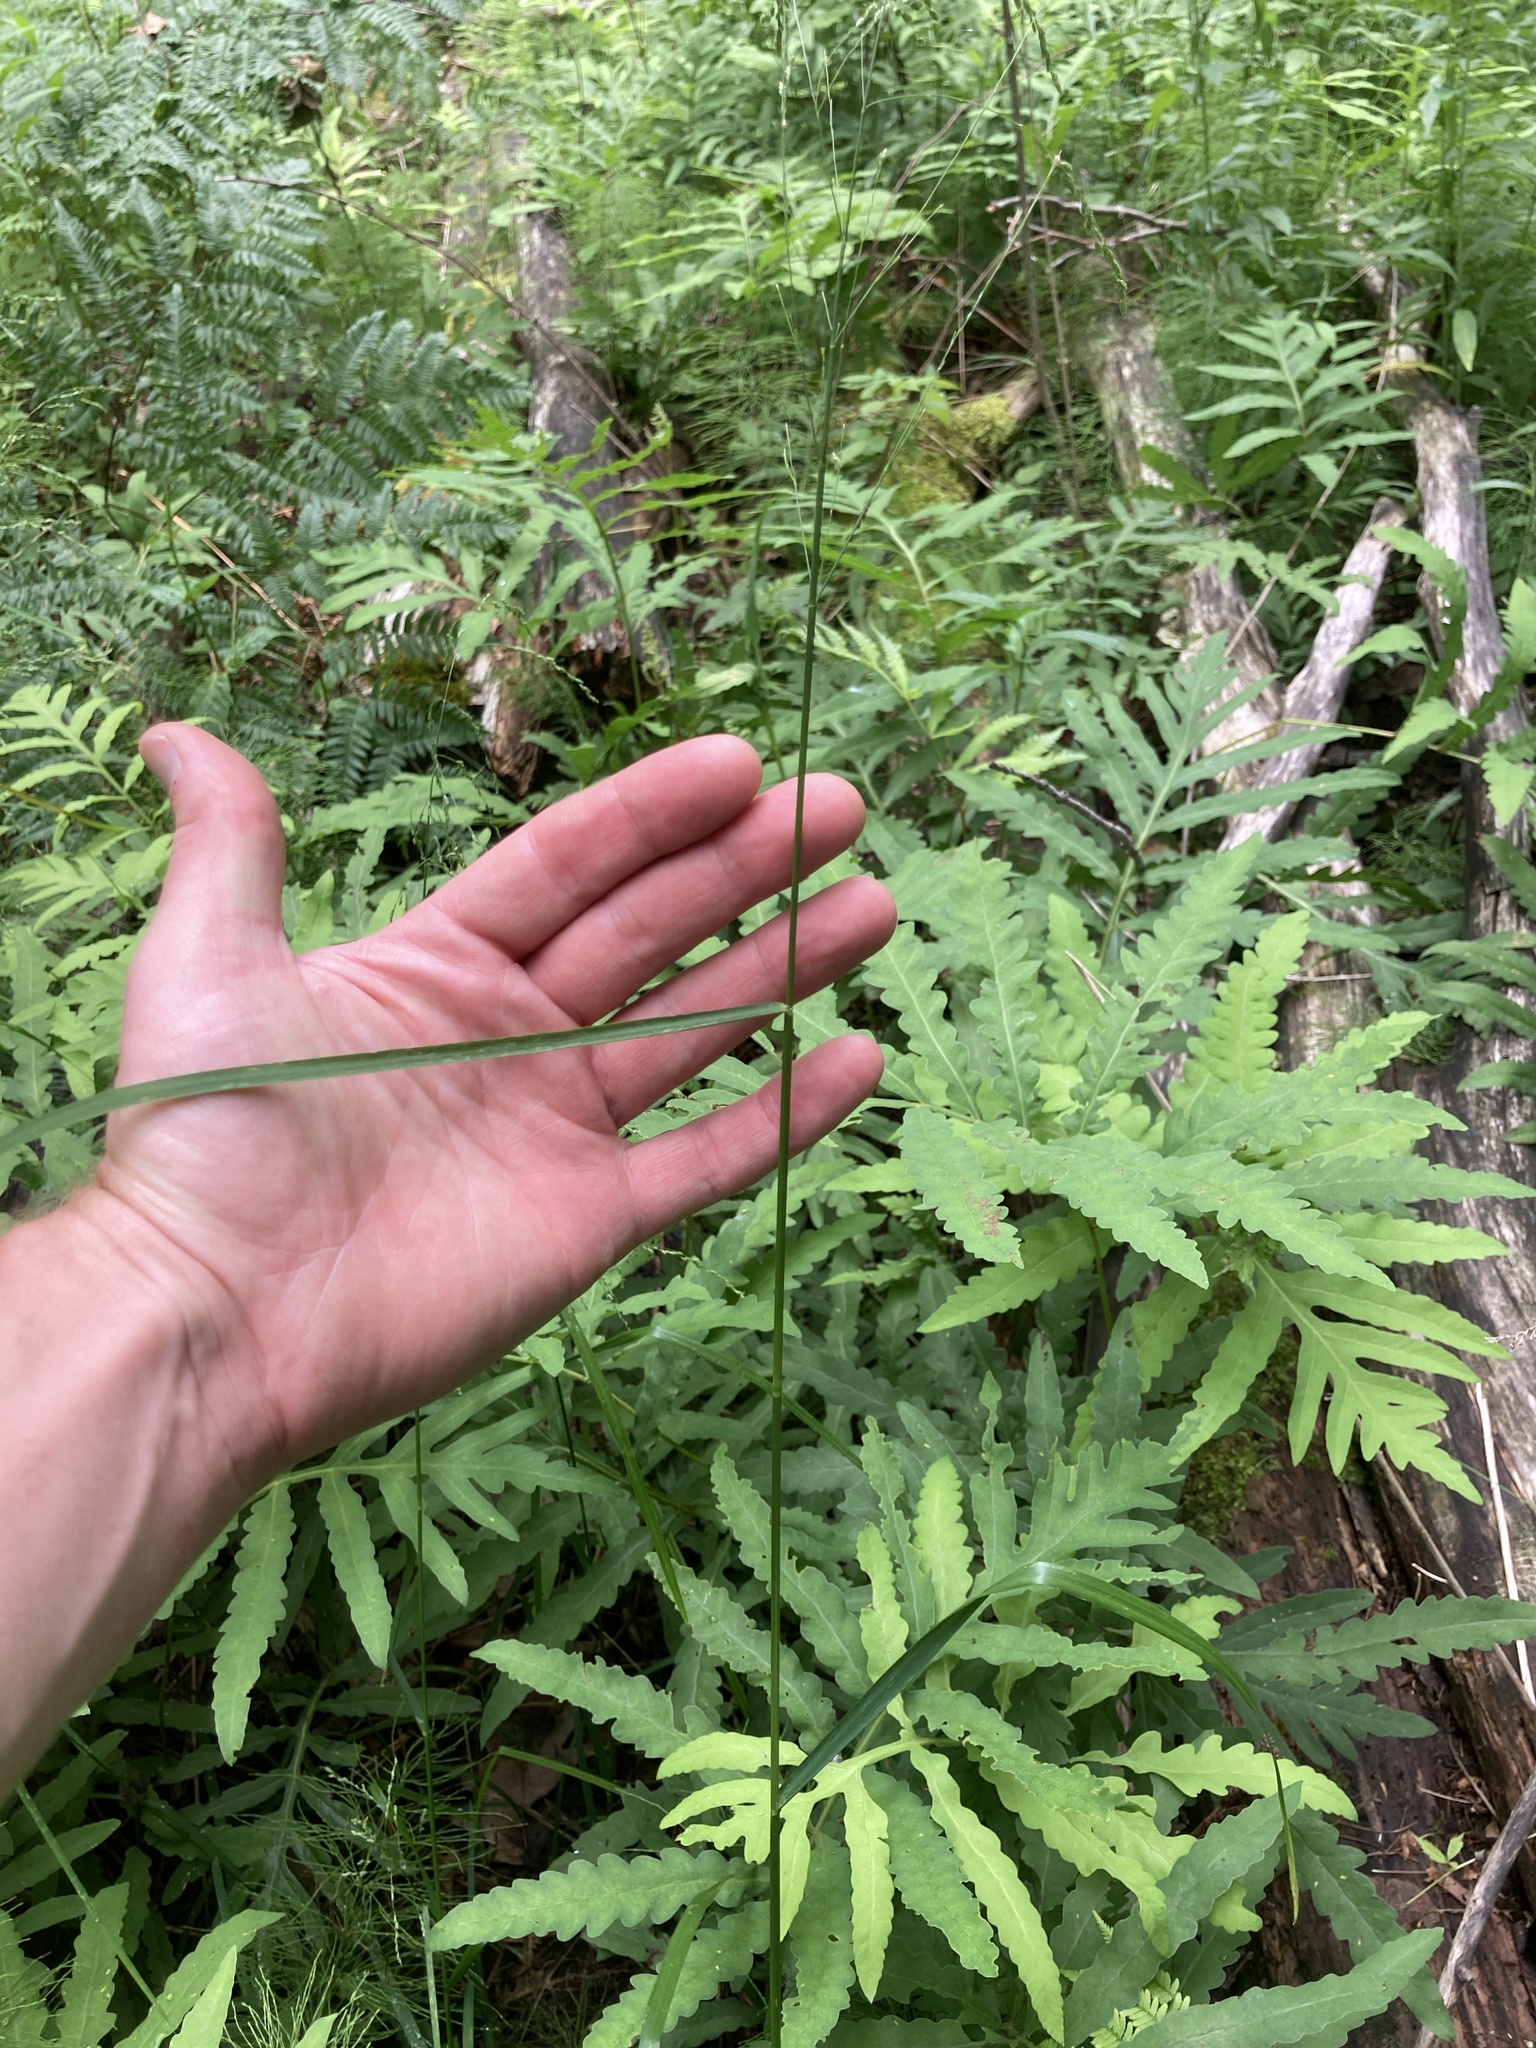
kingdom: Plantae
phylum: Tracheophyta
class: Liliopsida
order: Poales
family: Poaceae
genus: Glyceria
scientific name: Glyceria striata
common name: Fowl manna grass
